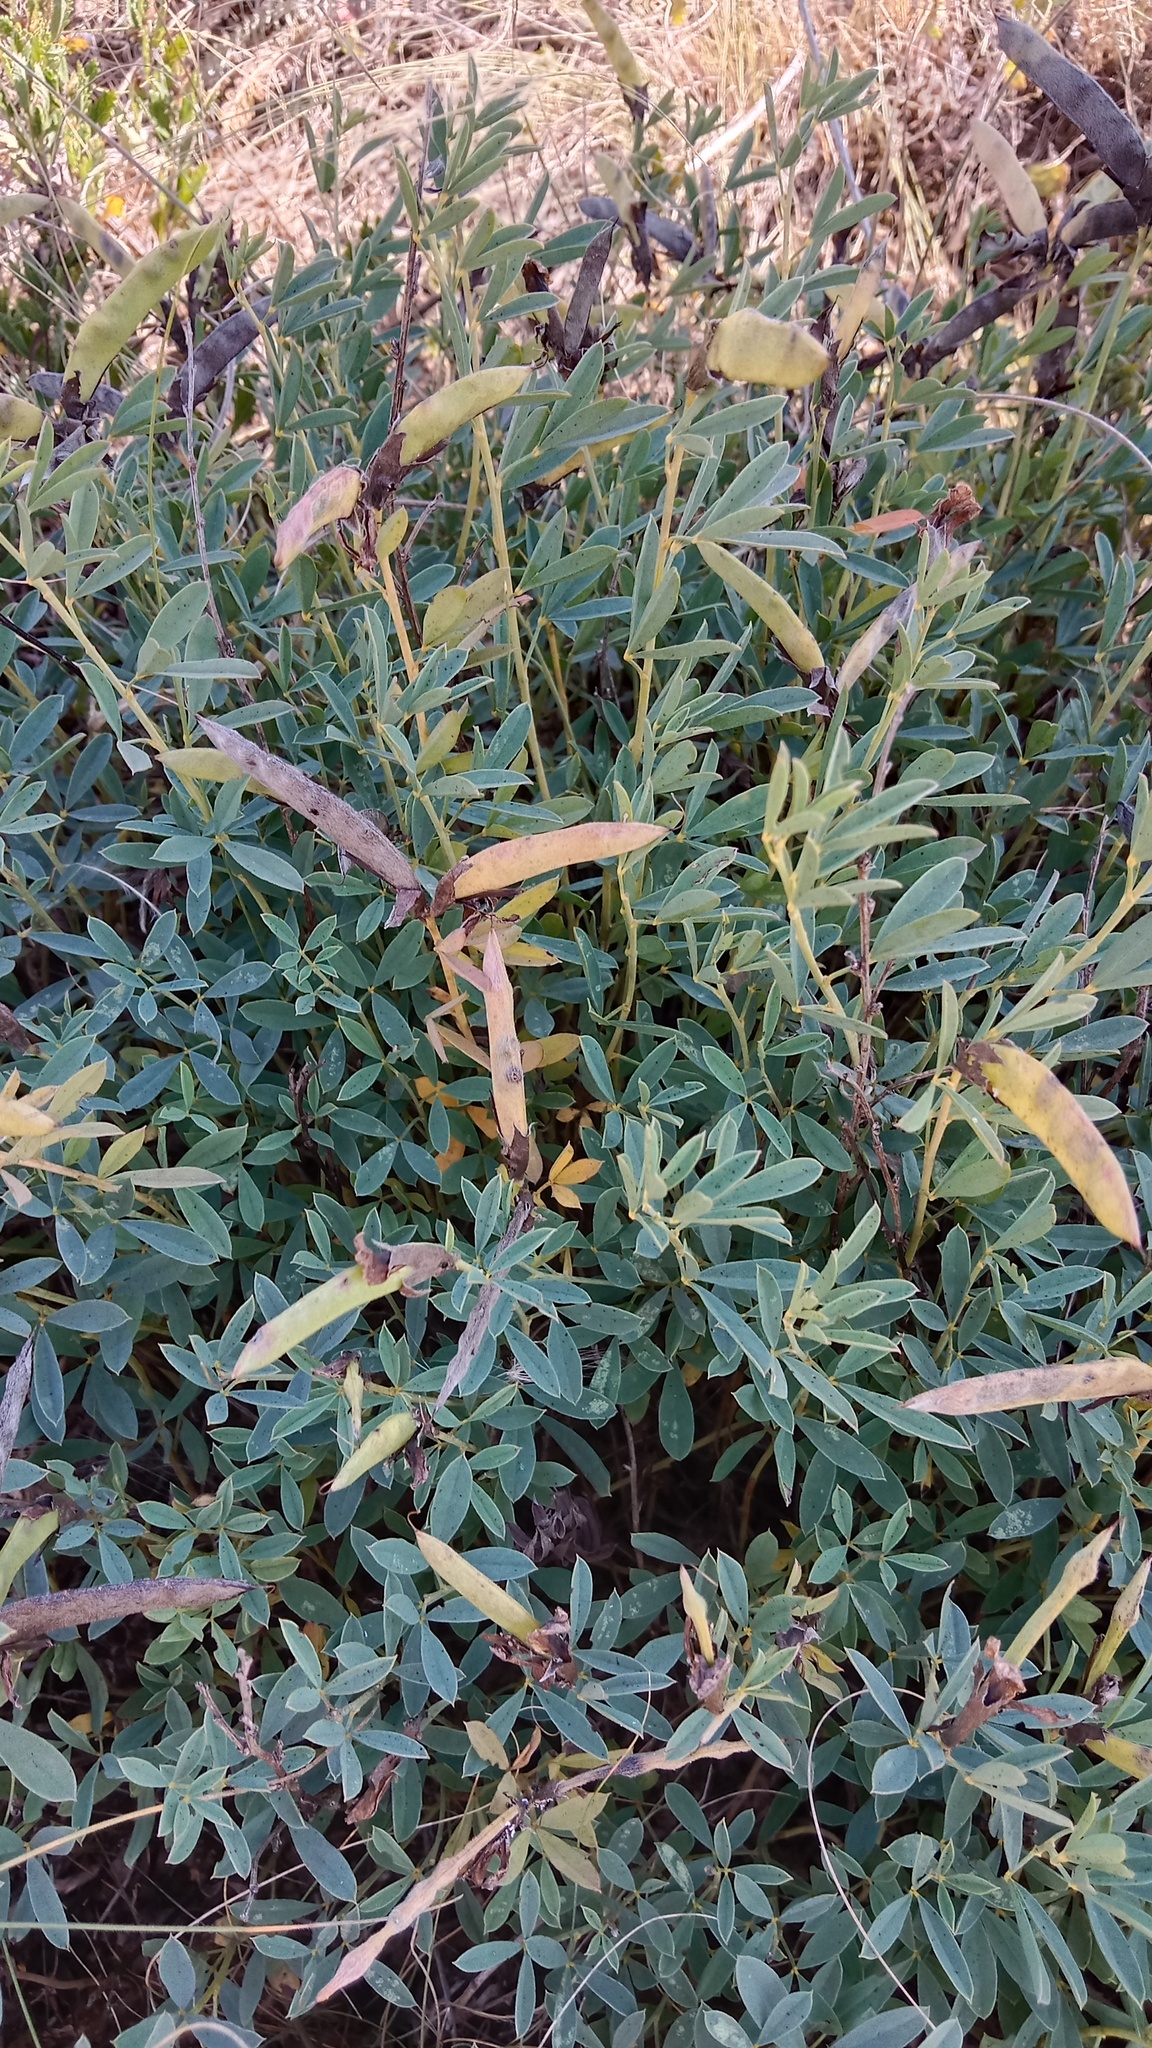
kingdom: Plantae
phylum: Tracheophyta
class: Magnoliopsida
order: Fabales
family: Fabaceae
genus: Chamaecytisus
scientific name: Chamaecytisus skrobiszewskii
